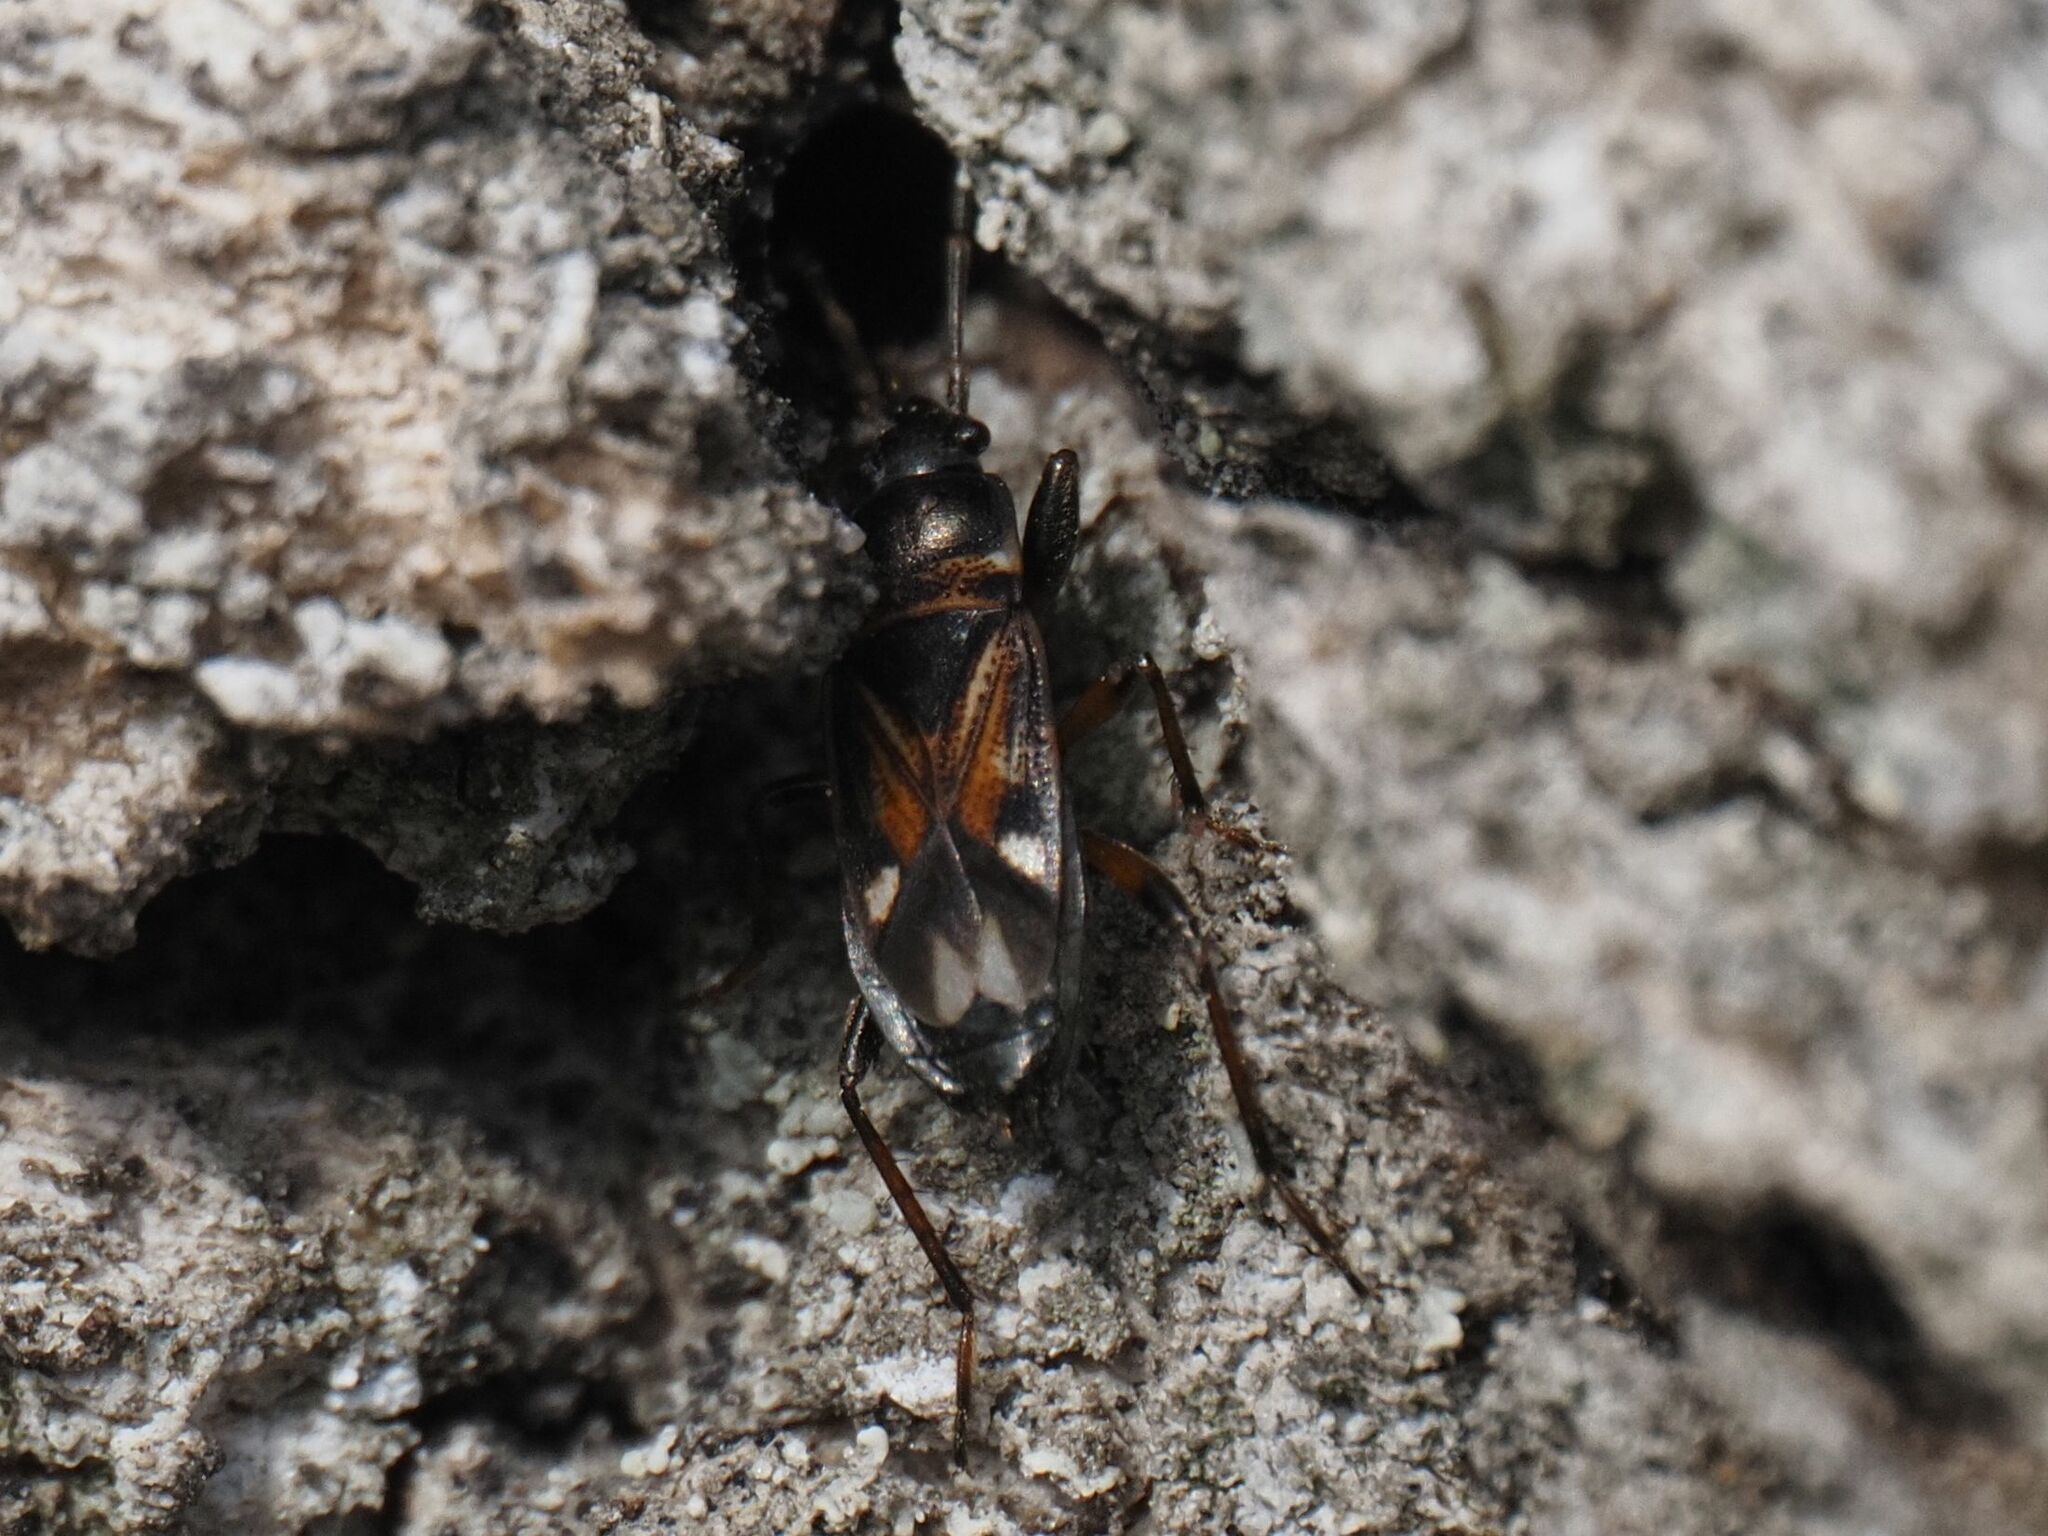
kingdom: Animalia
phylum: Arthropoda
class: Insecta
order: Hemiptera
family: Rhyparochromidae
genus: Raglius
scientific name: Raglius alboacuminatus
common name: Dirt-colored seed bug
